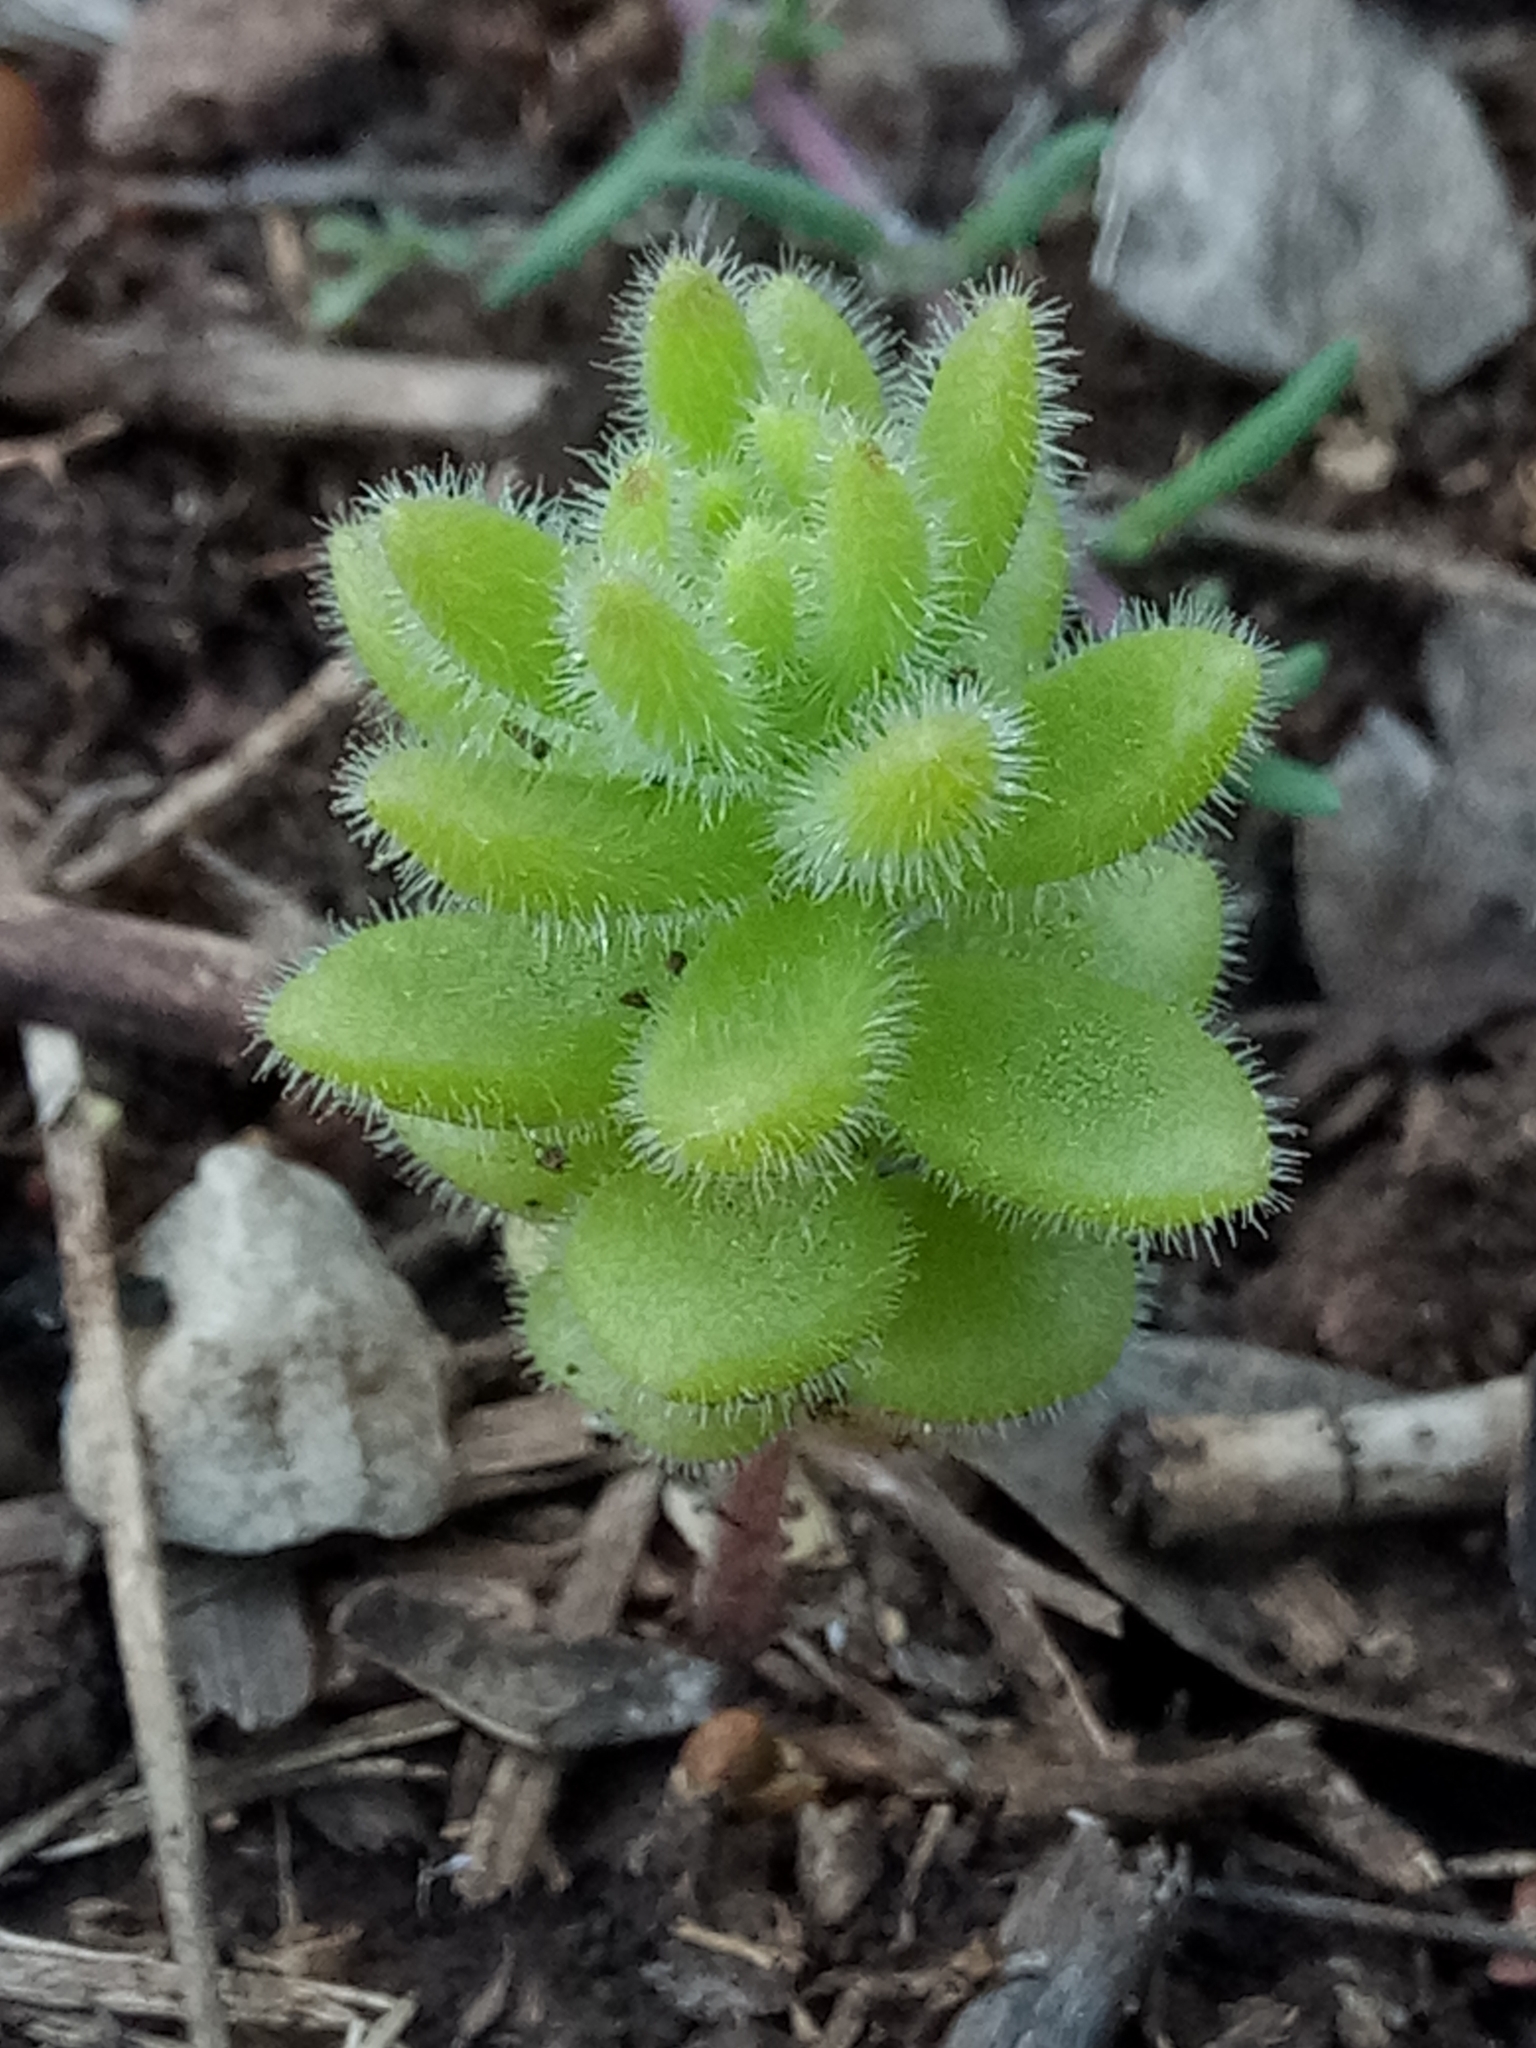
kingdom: Plantae
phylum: Tracheophyta
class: Magnoliopsida
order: Saxifragales
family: Crassulaceae
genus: Sedum
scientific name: Sedum pubescens
